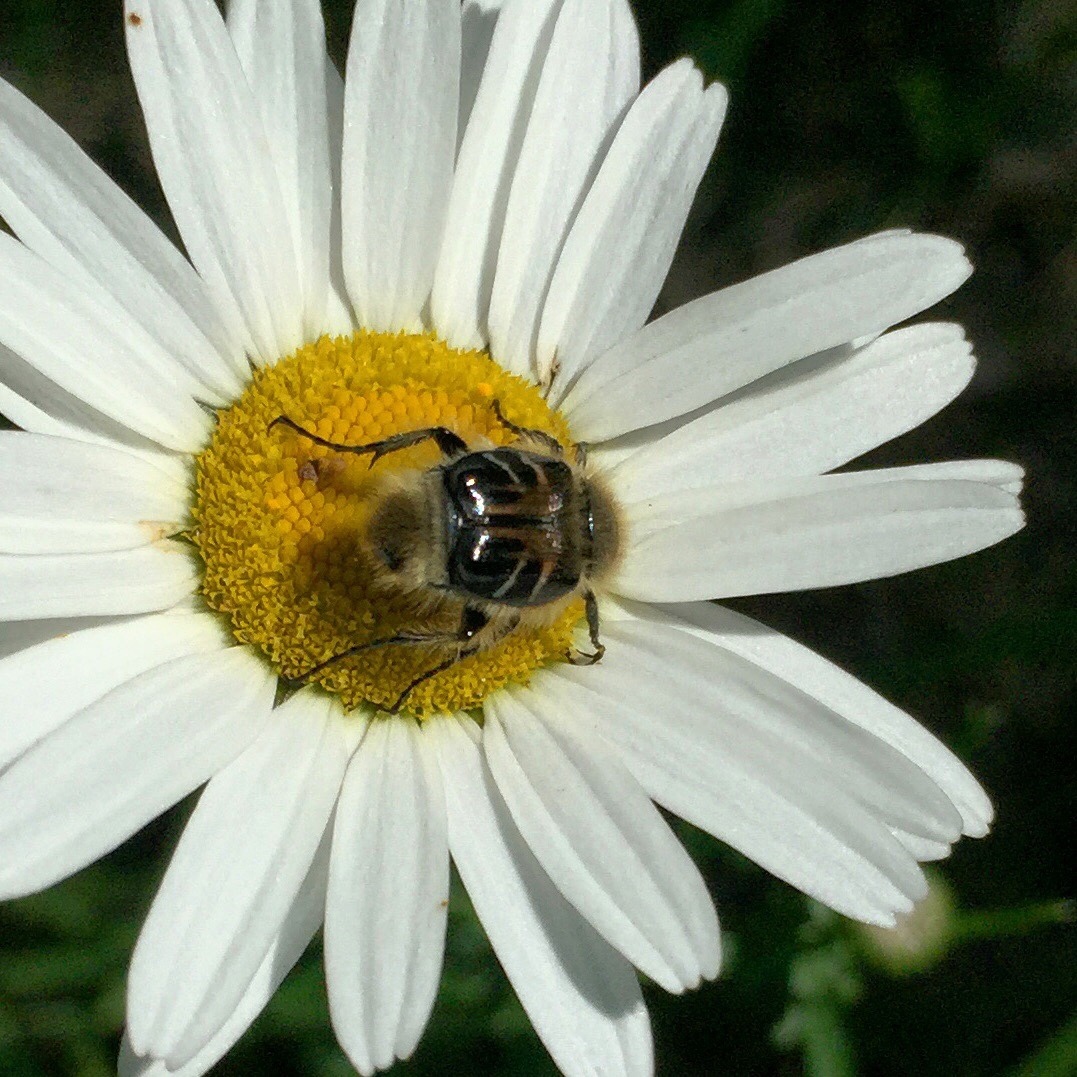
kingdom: Animalia
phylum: Arthropoda
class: Insecta
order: Coleoptera
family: Scarabaeidae
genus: Trichiotinus
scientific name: Trichiotinus assimilis
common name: Bee-mimic beetle
